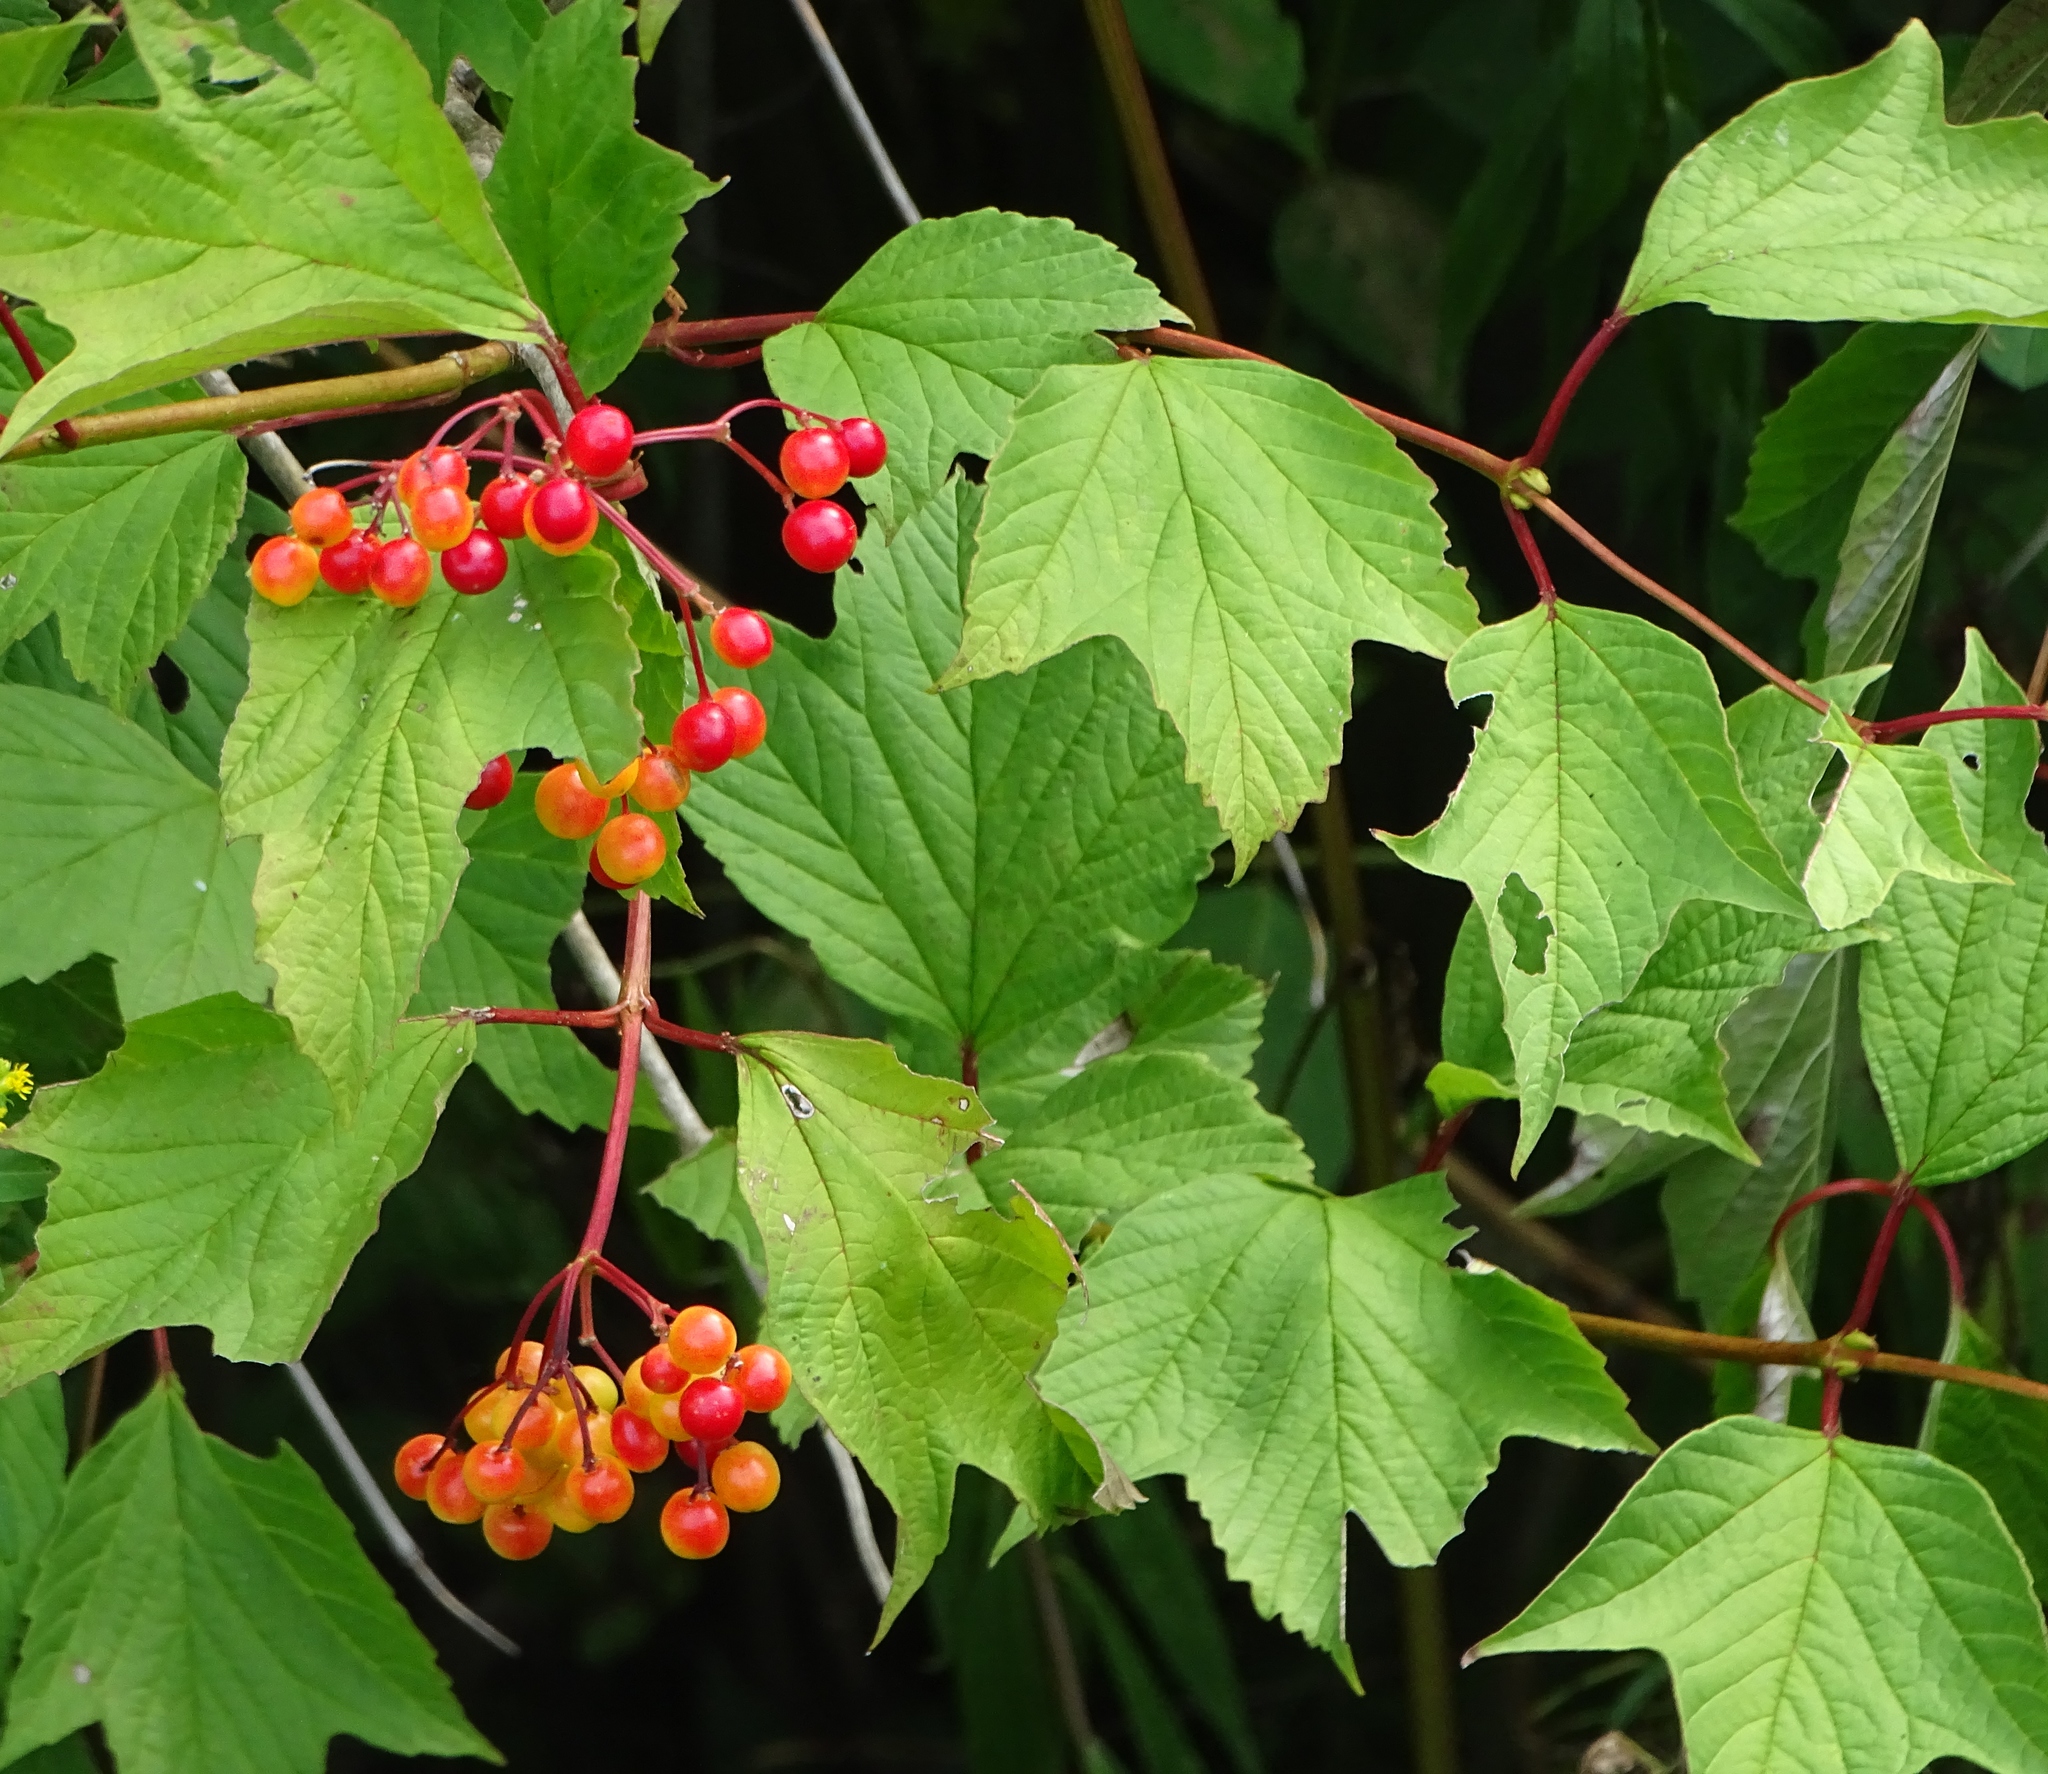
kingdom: Plantae
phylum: Tracheophyta
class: Magnoliopsida
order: Dipsacales
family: Viburnaceae
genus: Viburnum
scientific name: Viburnum opulus
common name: Guelder-rose
